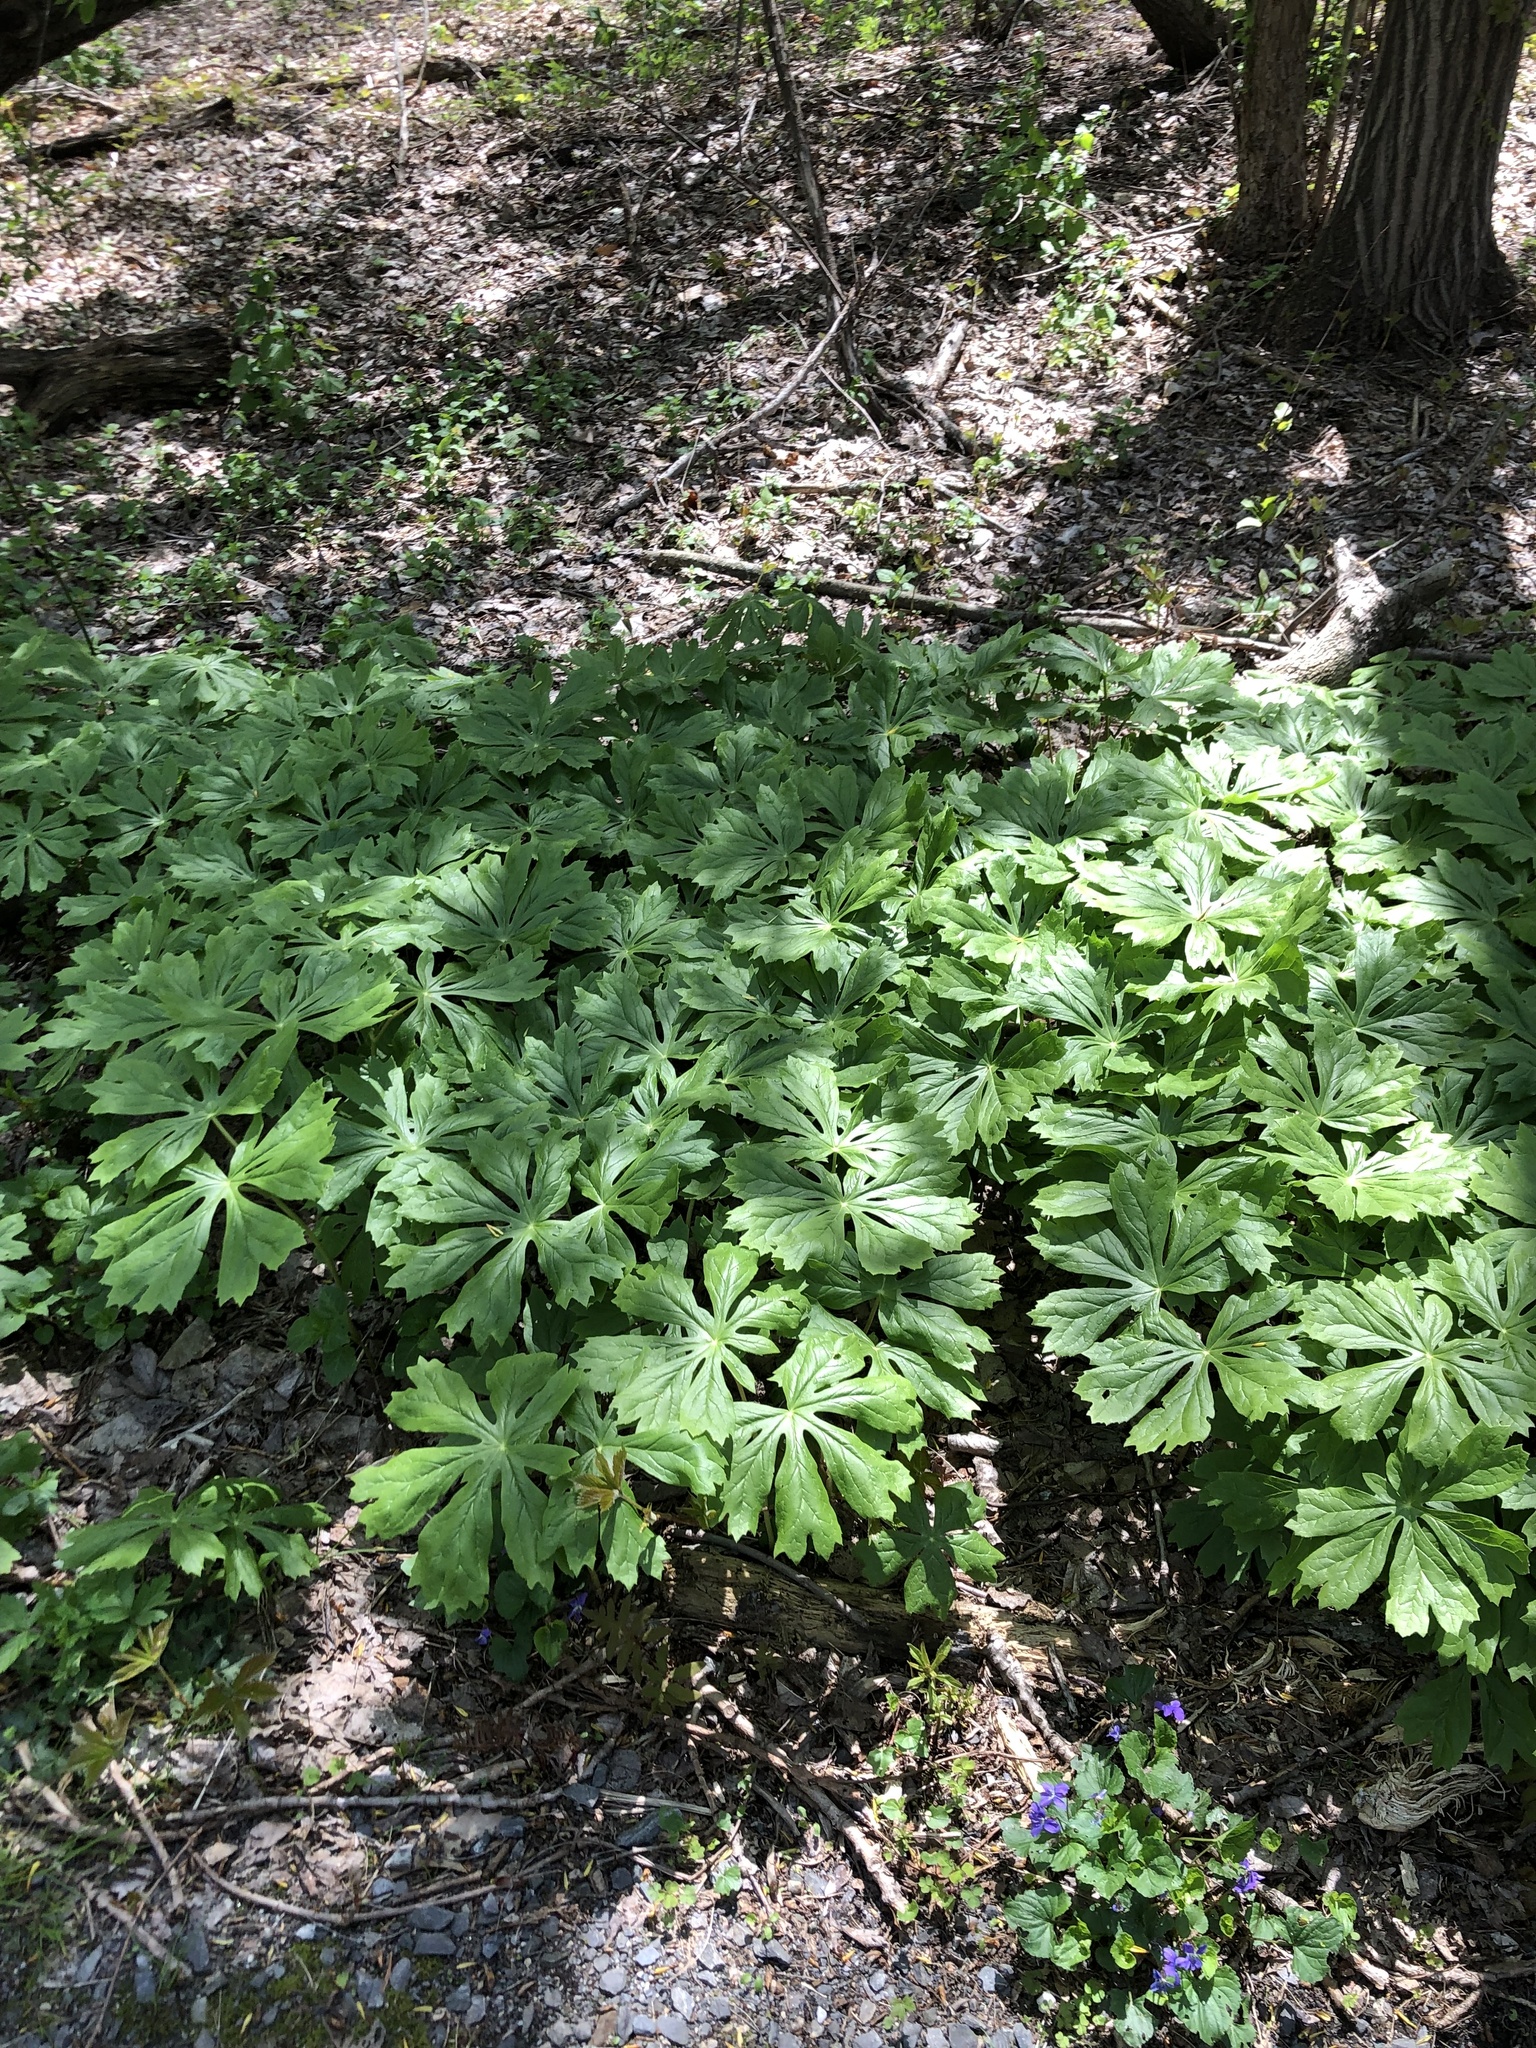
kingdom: Plantae
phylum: Tracheophyta
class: Magnoliopsida
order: Ranunculales
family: Berberidaceae
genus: Podophyllum
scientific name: Podophyllum peltatum
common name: Wild mandrake
